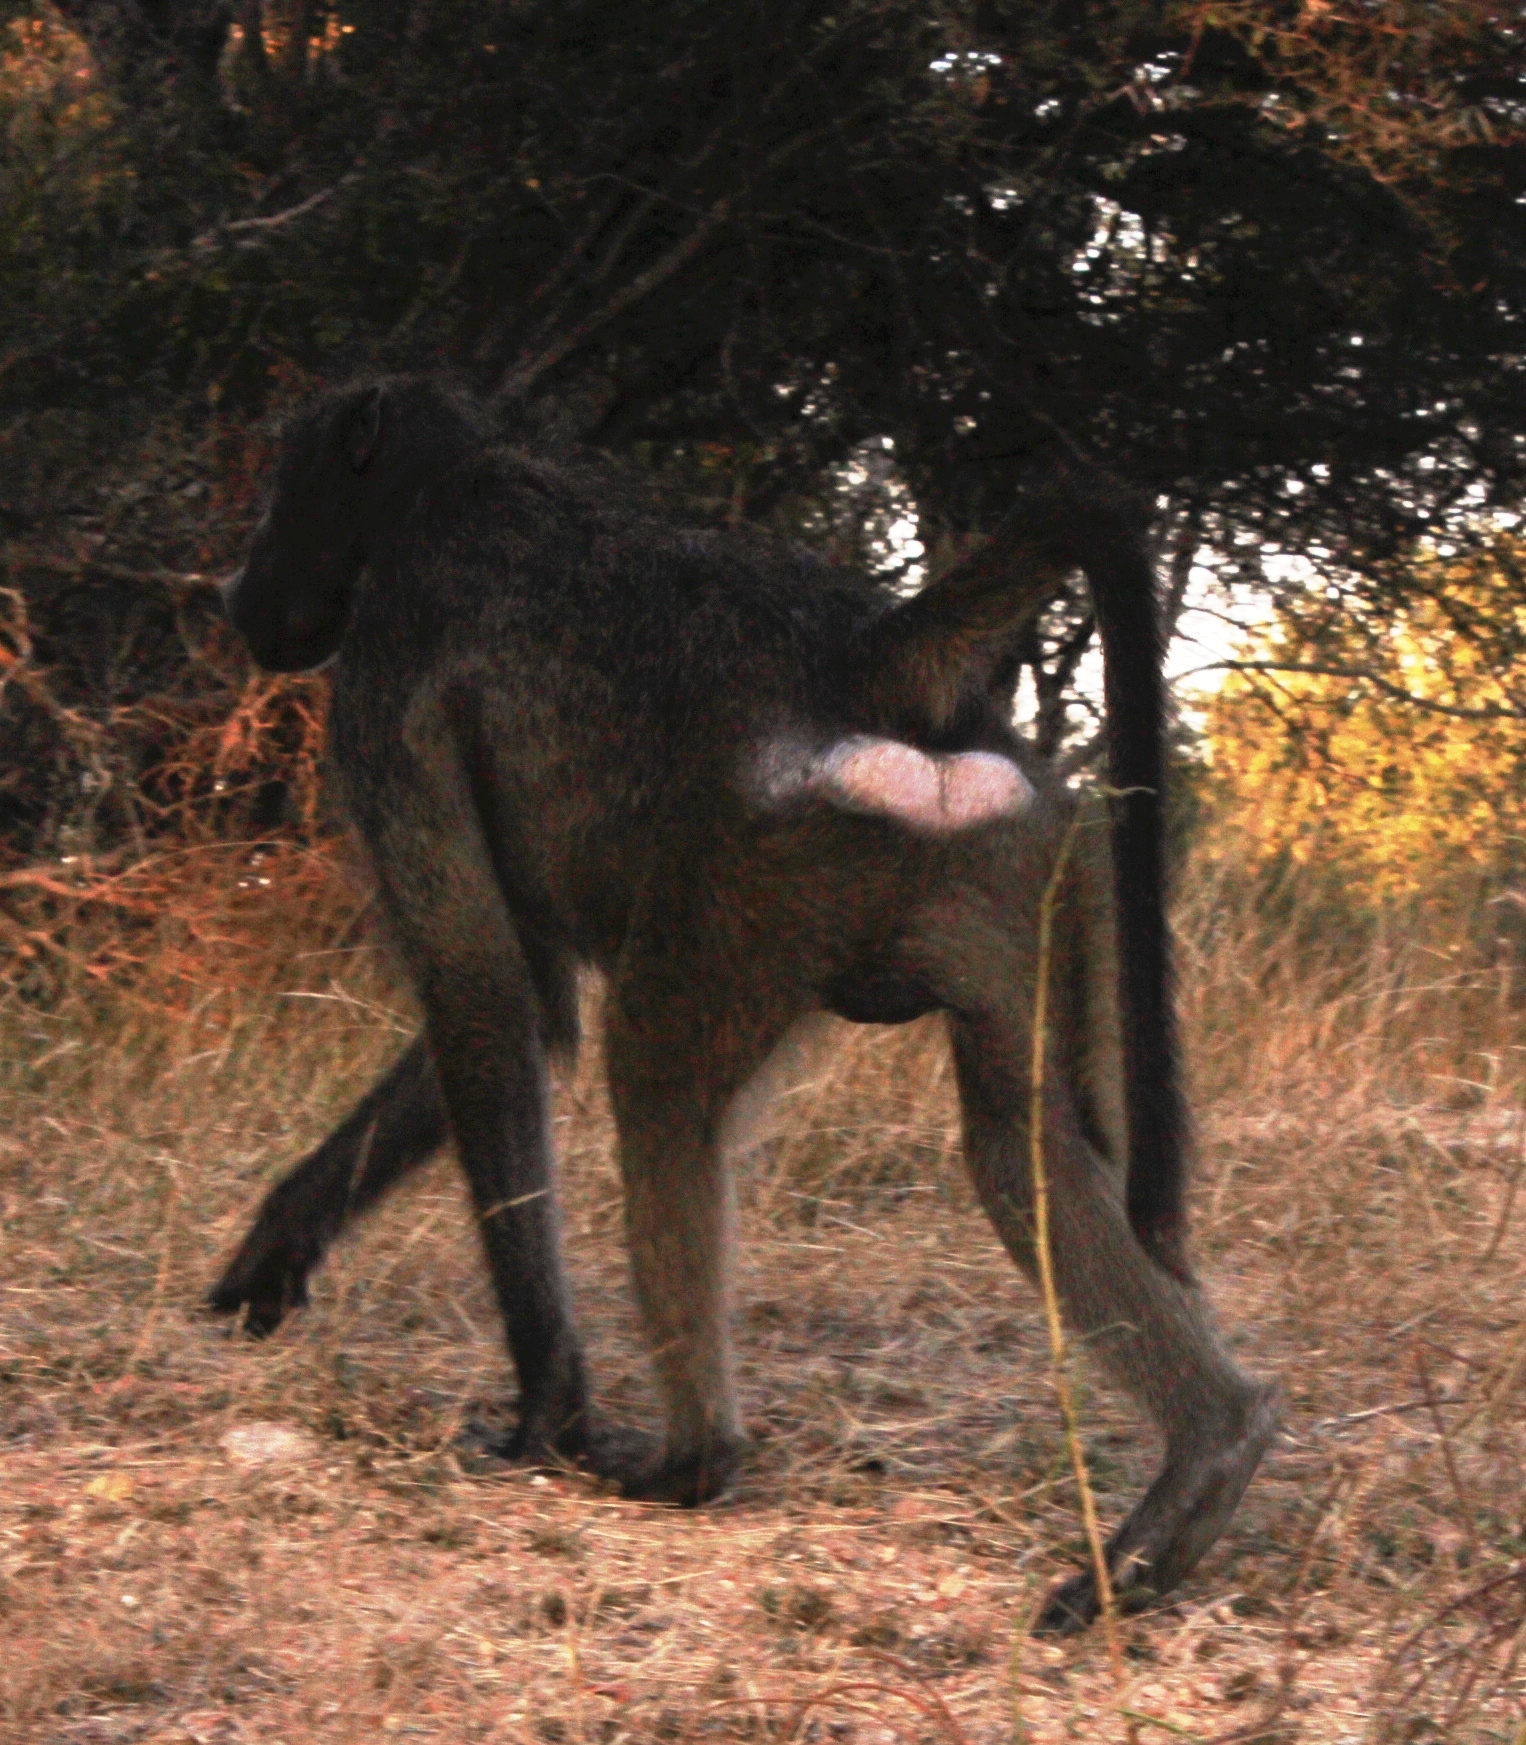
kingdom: Animalia
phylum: Chordata
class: Mammalia
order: Primates
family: Cercopithecidae
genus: Papio
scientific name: Papio ursinus
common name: Chacma baboon
